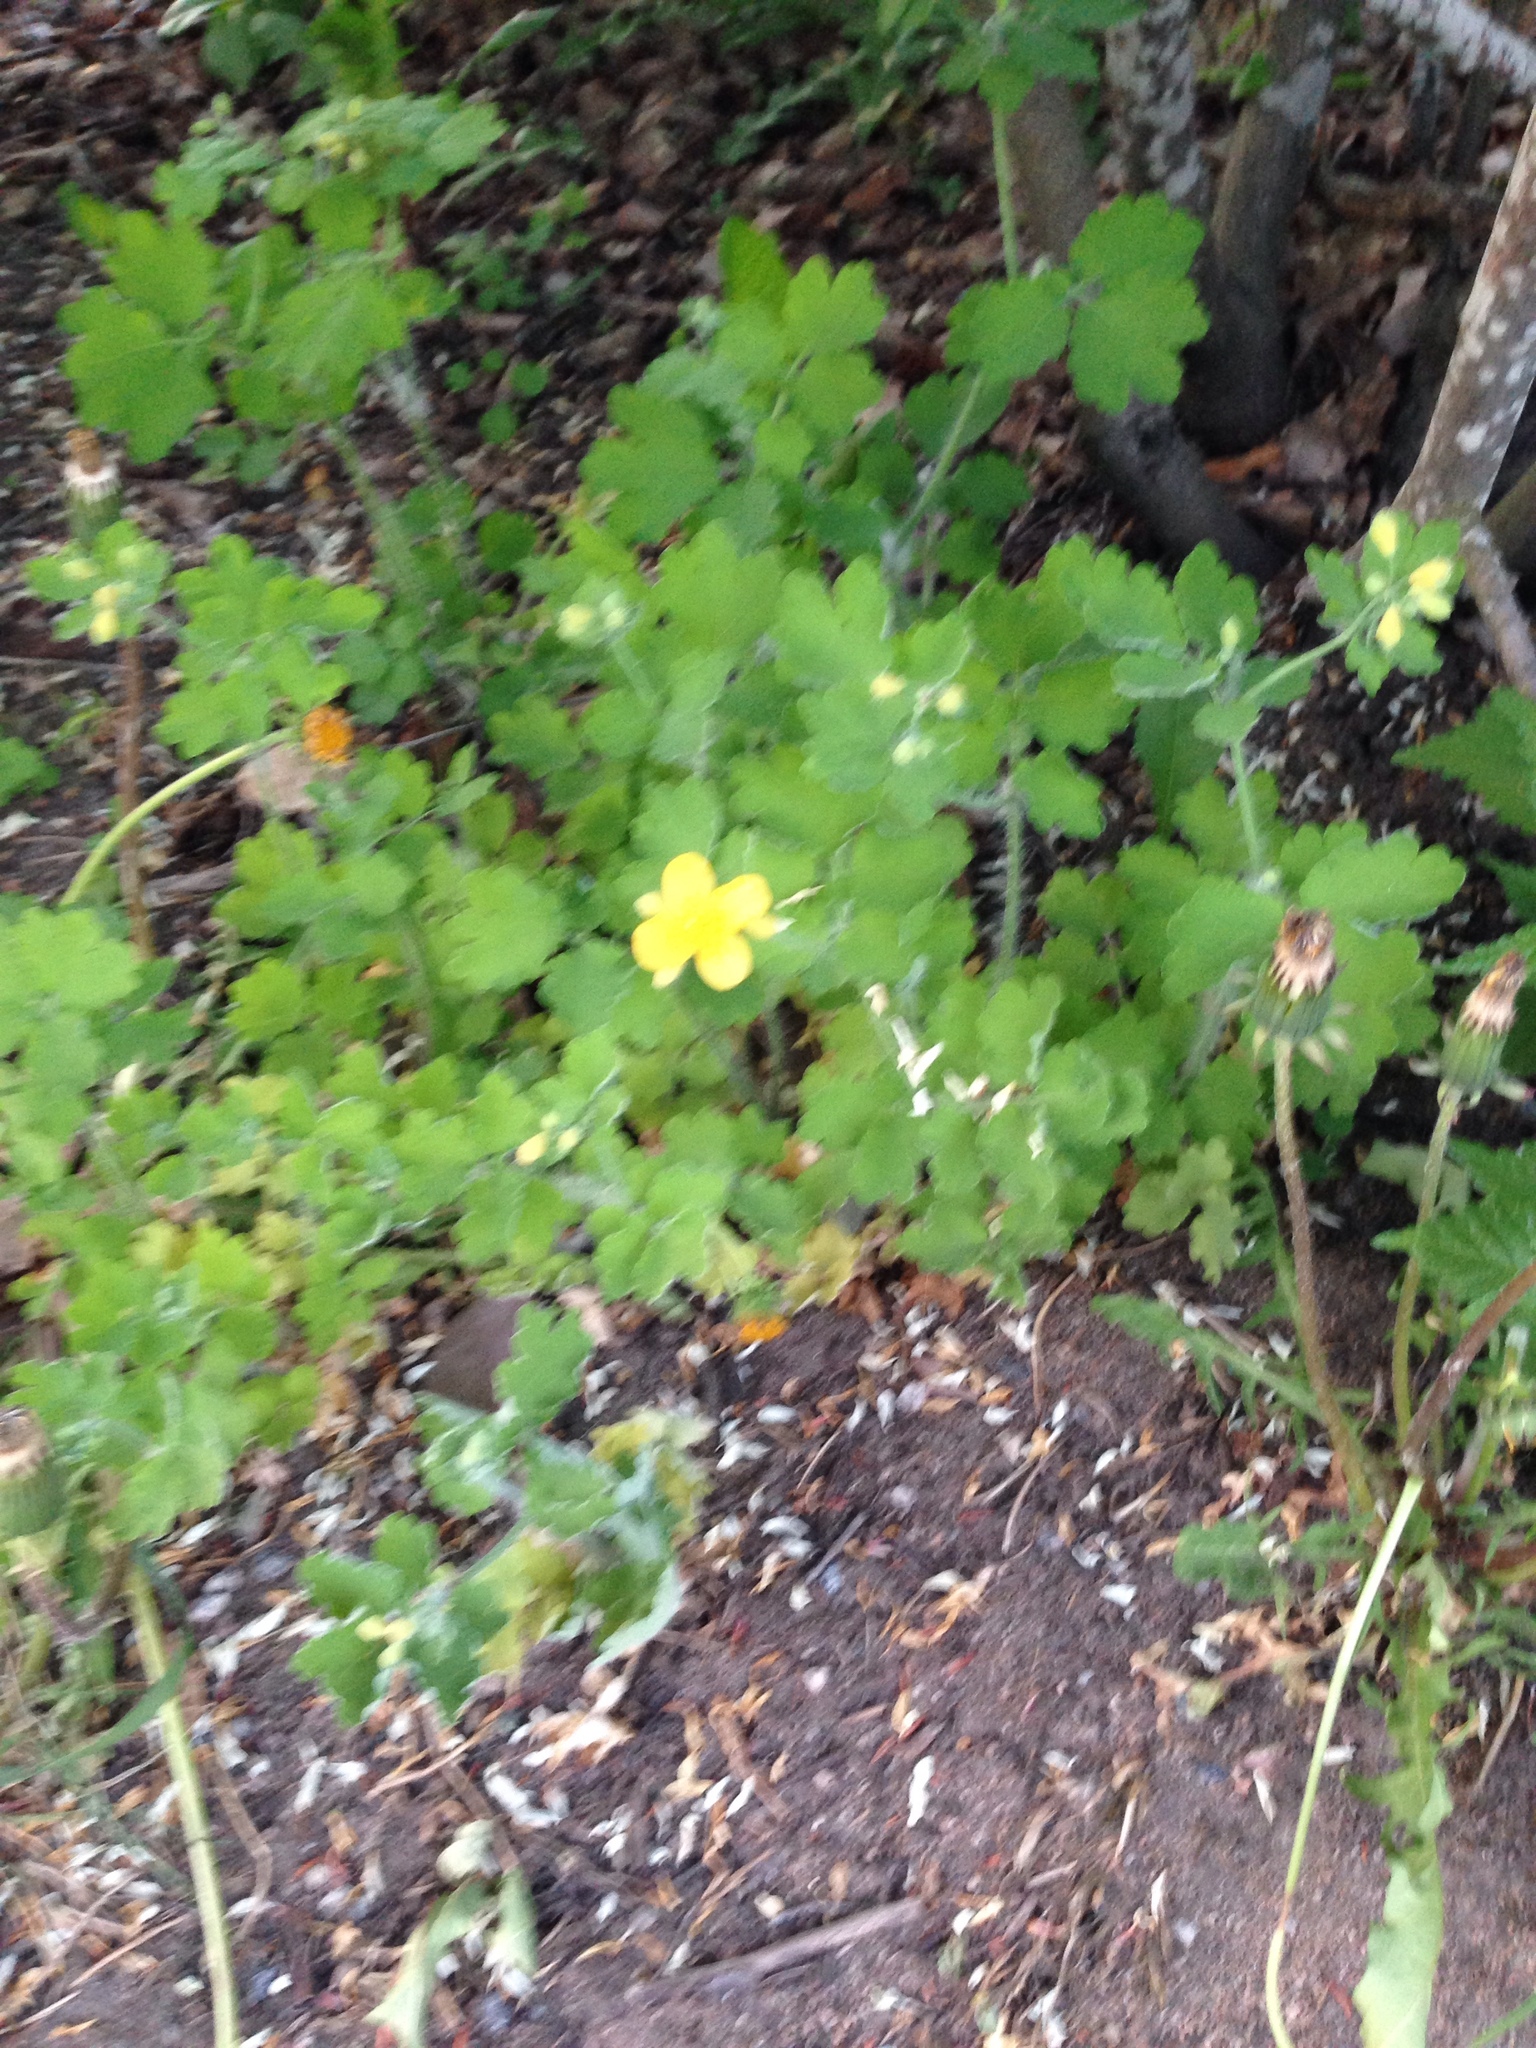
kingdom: Plantae
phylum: Tracheophyta
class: Magnoliopsida
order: Ranunculales
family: Papaveraceae
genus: Chelidonium
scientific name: Chelidonium majus
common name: Greater celandine
